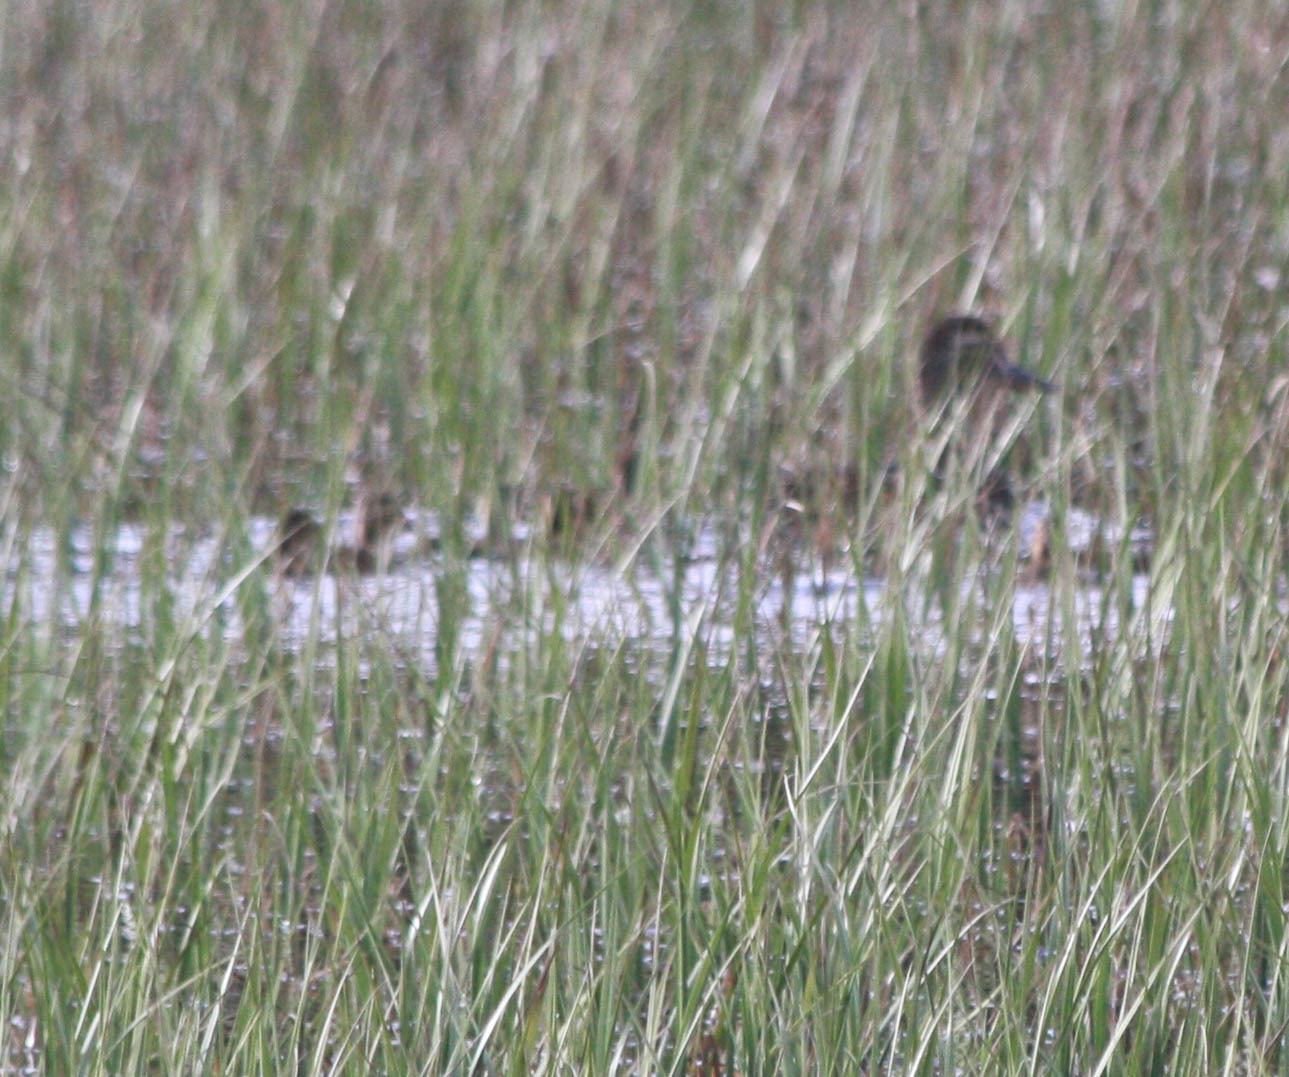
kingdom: Animalia
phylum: Chordata
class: Aves
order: Anseriformes
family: Anatidae
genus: Anas
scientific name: Anas platyrhynchos
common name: Mallard
